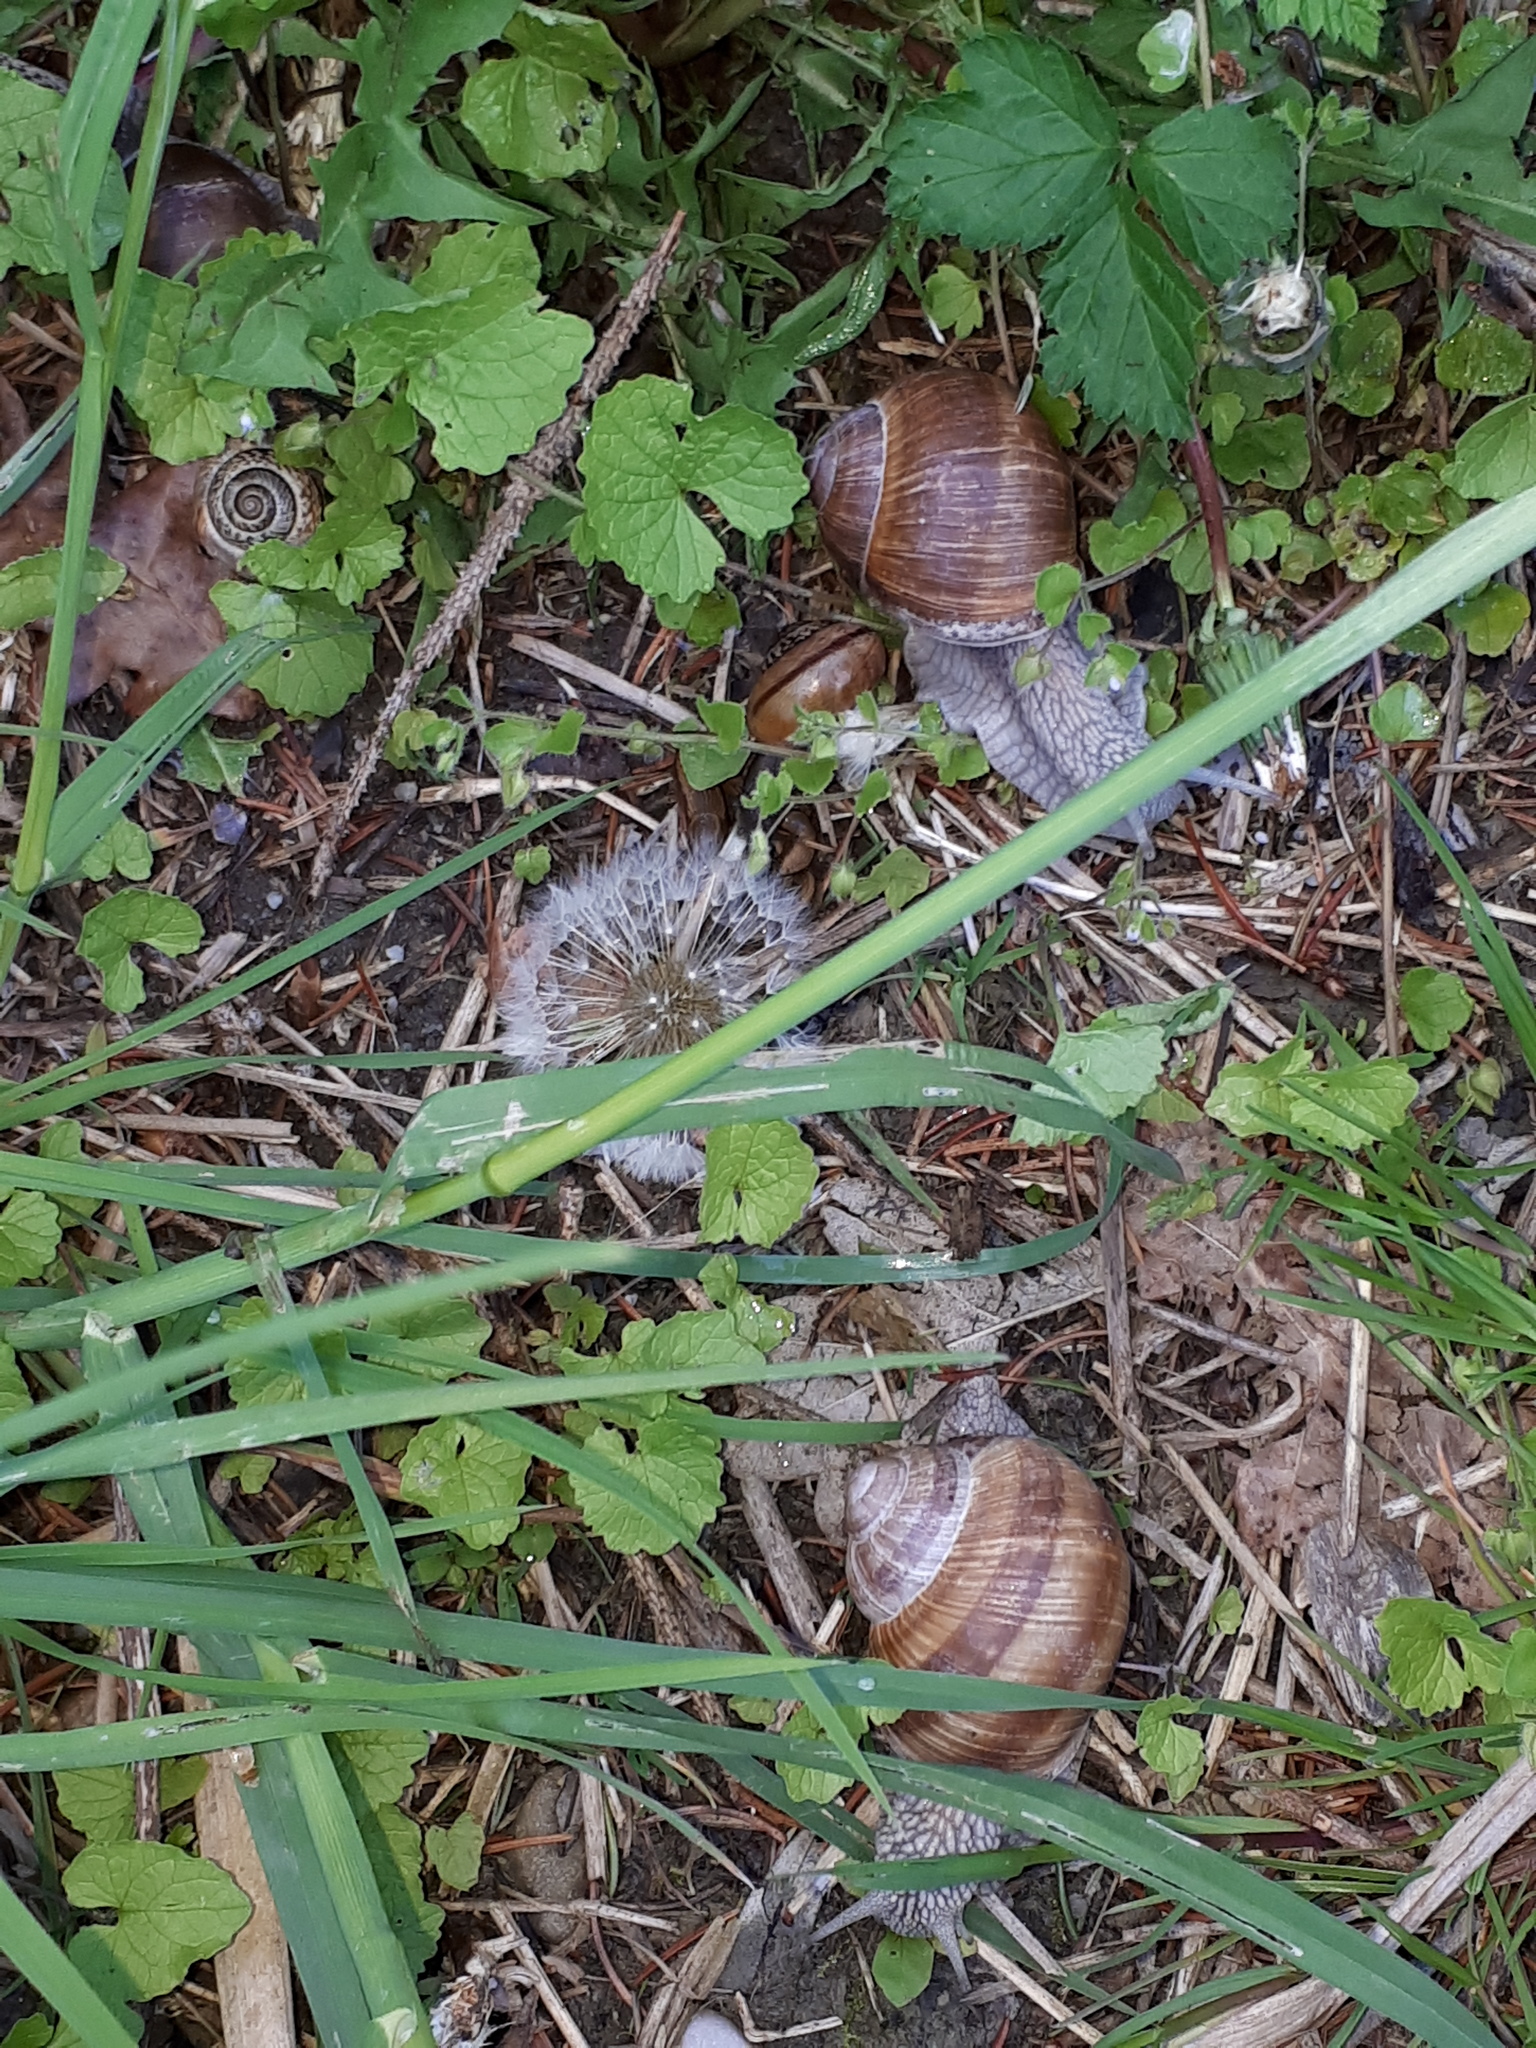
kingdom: Animalia
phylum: Mollusca
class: Gastropoda
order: Stylommatophora
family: Helicidae
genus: Helix
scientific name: Helix pomatia
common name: Roman snail
